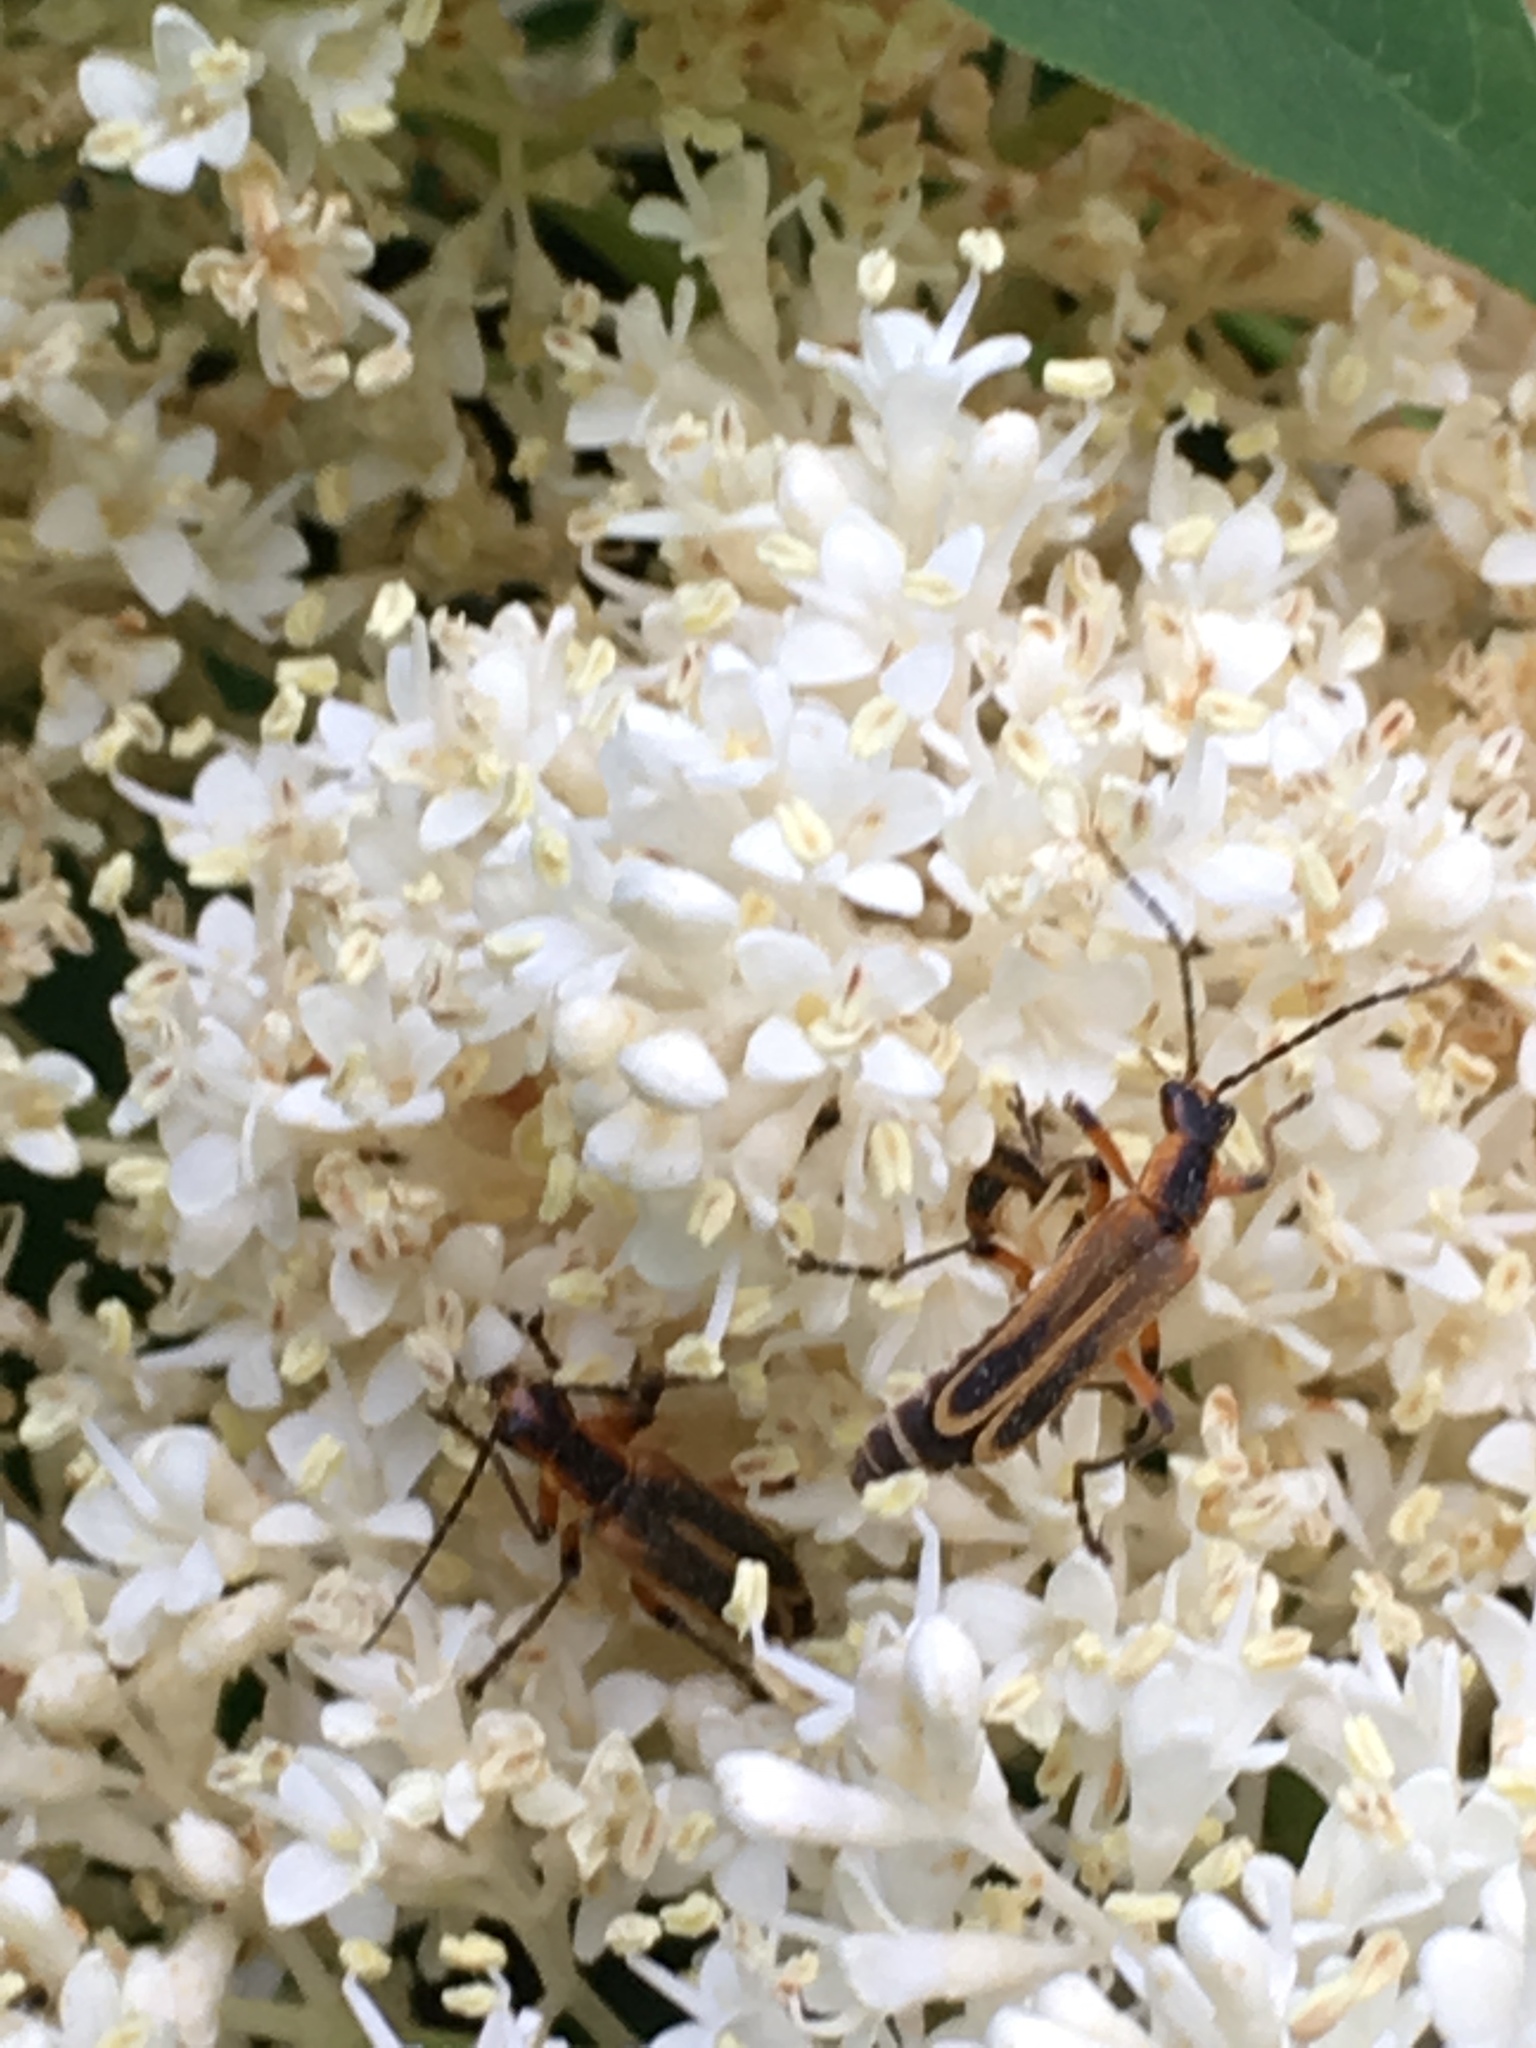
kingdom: Animalia
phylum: Arthropoda
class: Insecta
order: Coleoptera
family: Cantharidae
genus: Chauliognathus
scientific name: Chauliognathus marginatus
